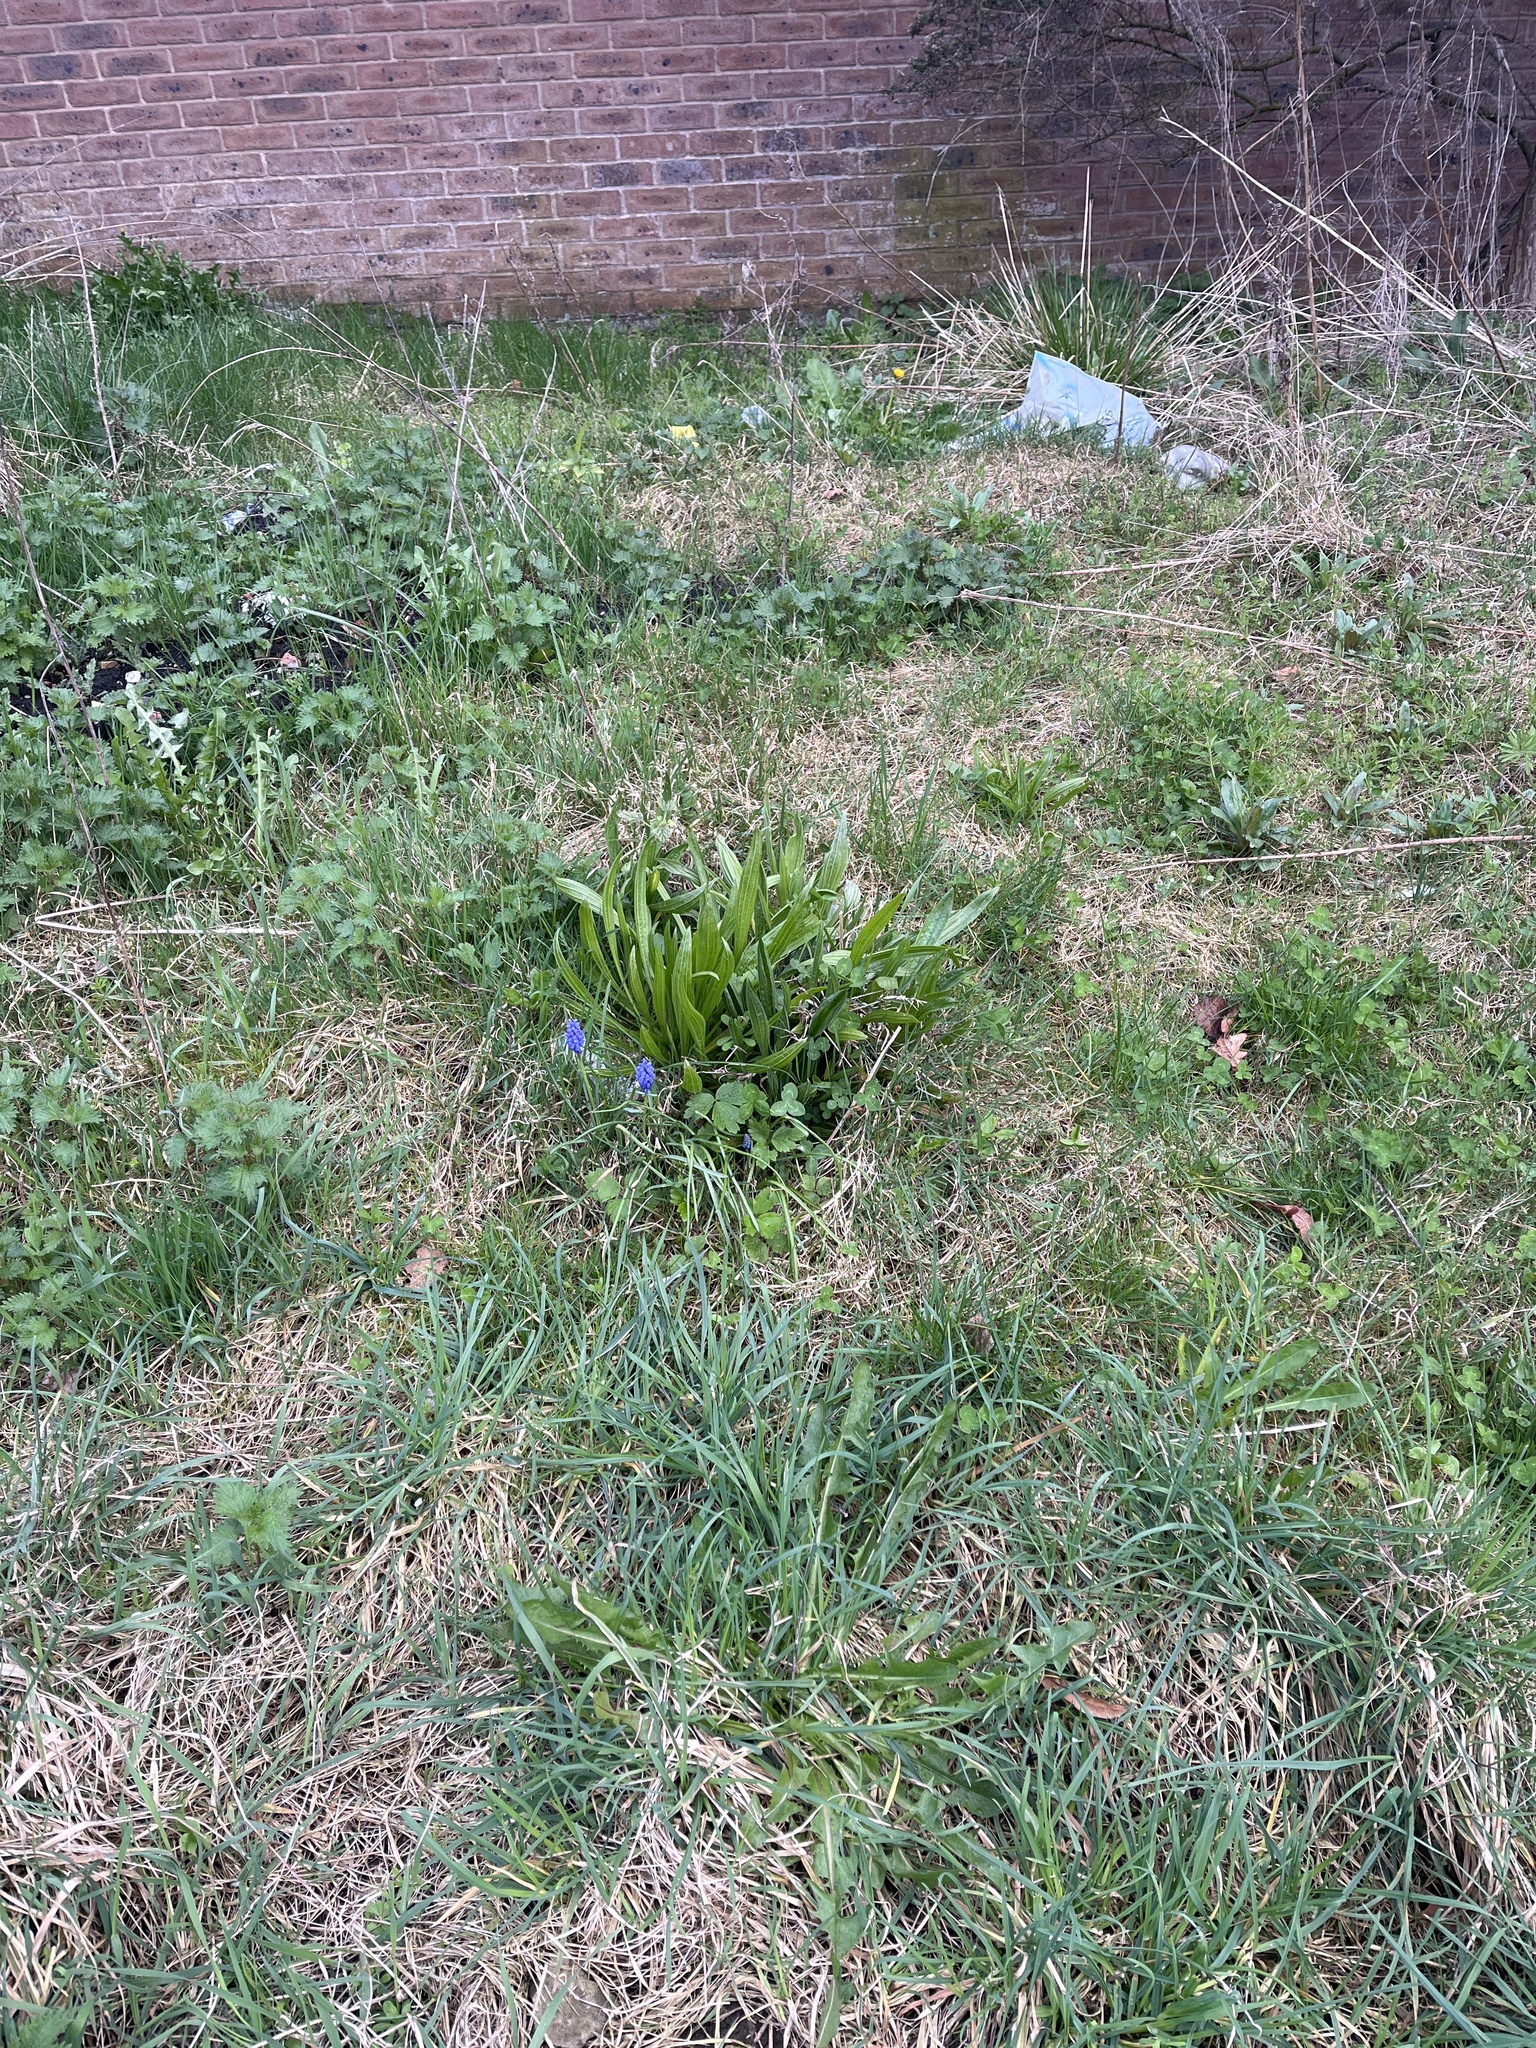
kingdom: Plantae
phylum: Tracheophyta
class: Liliopsida
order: Asparagales
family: Asparagaceae
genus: Muscari
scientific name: Muscari armeniacum
